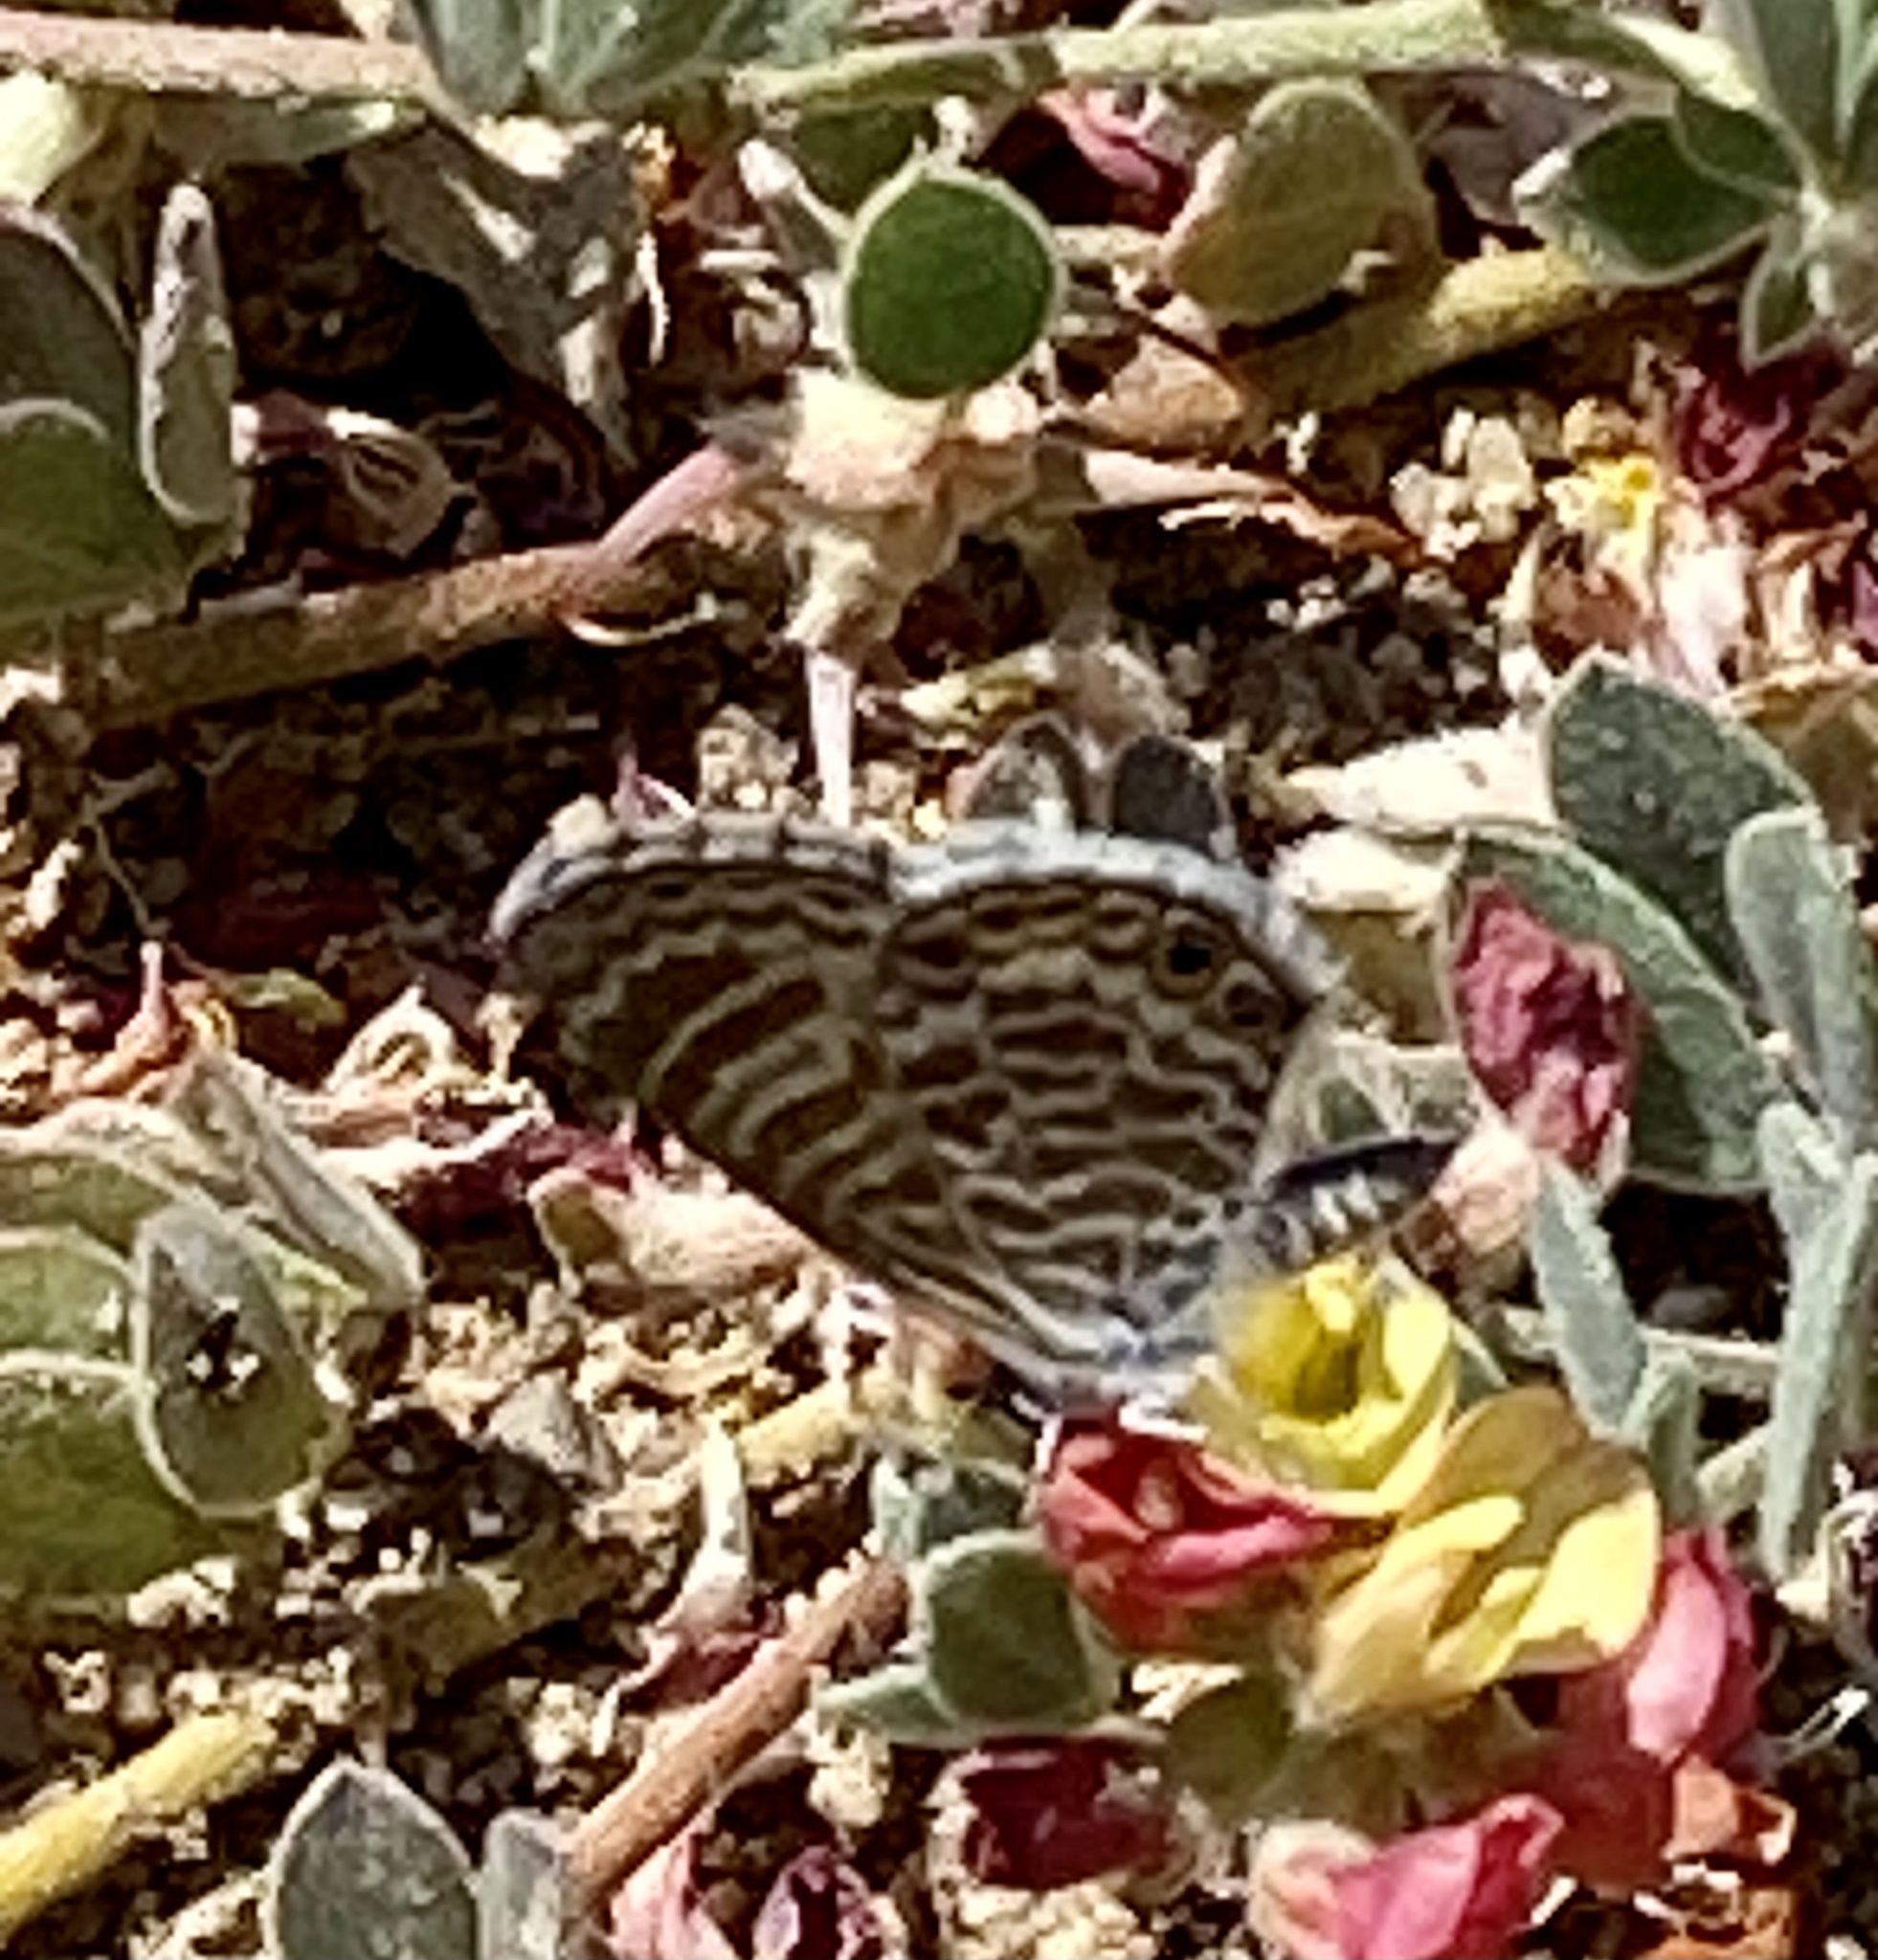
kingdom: Animalia
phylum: Arthropoda
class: Insecta
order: Lepidoptera
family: Lycaenidae
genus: Leptotes
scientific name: Leptotes marina
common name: Marine blue
